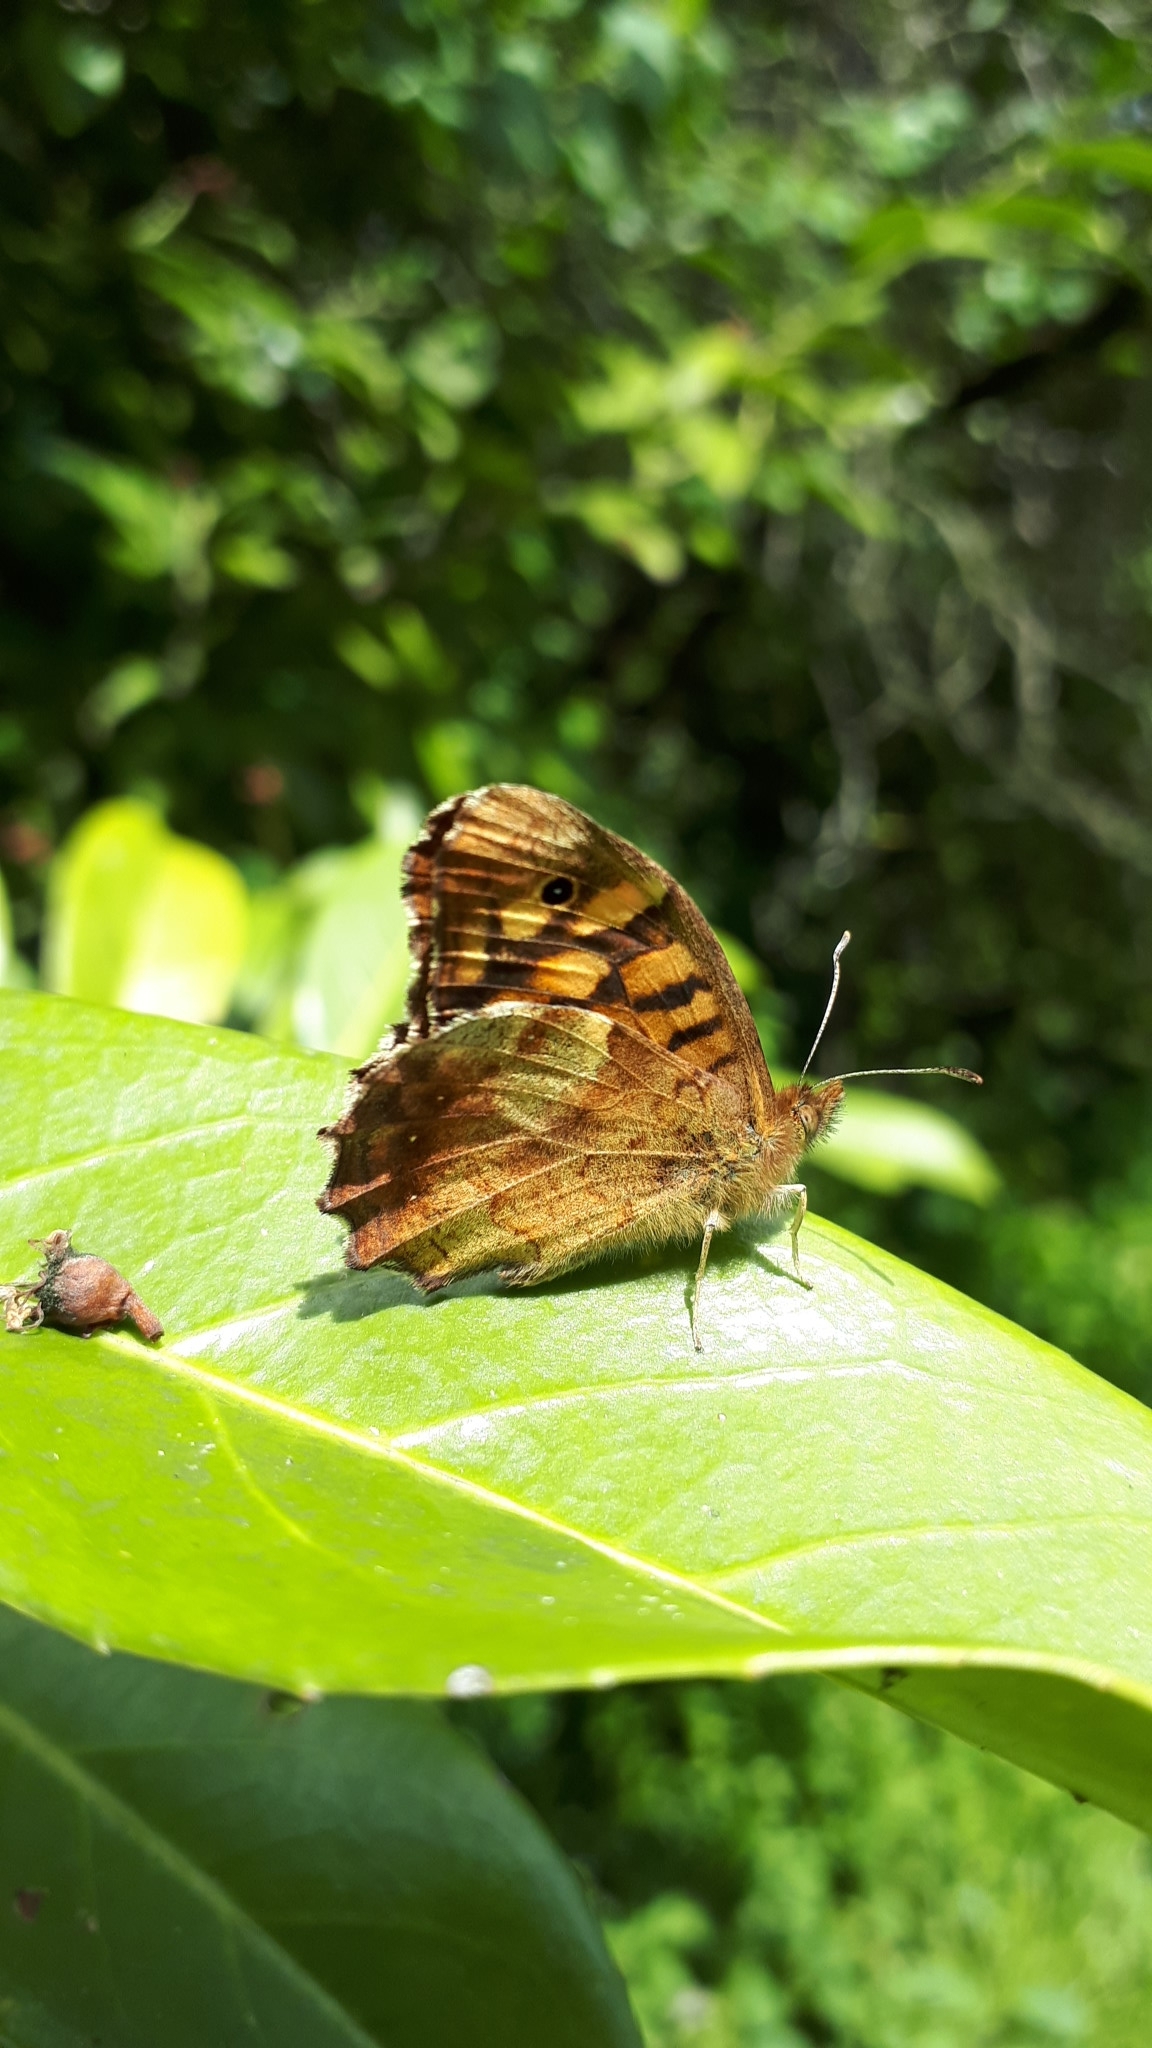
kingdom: Animalia
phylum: Arthropoda
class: Insecta
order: Lepidoptera
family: Nymphalidae
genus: Pararge
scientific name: Pararge aegeria
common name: Speckled wood
